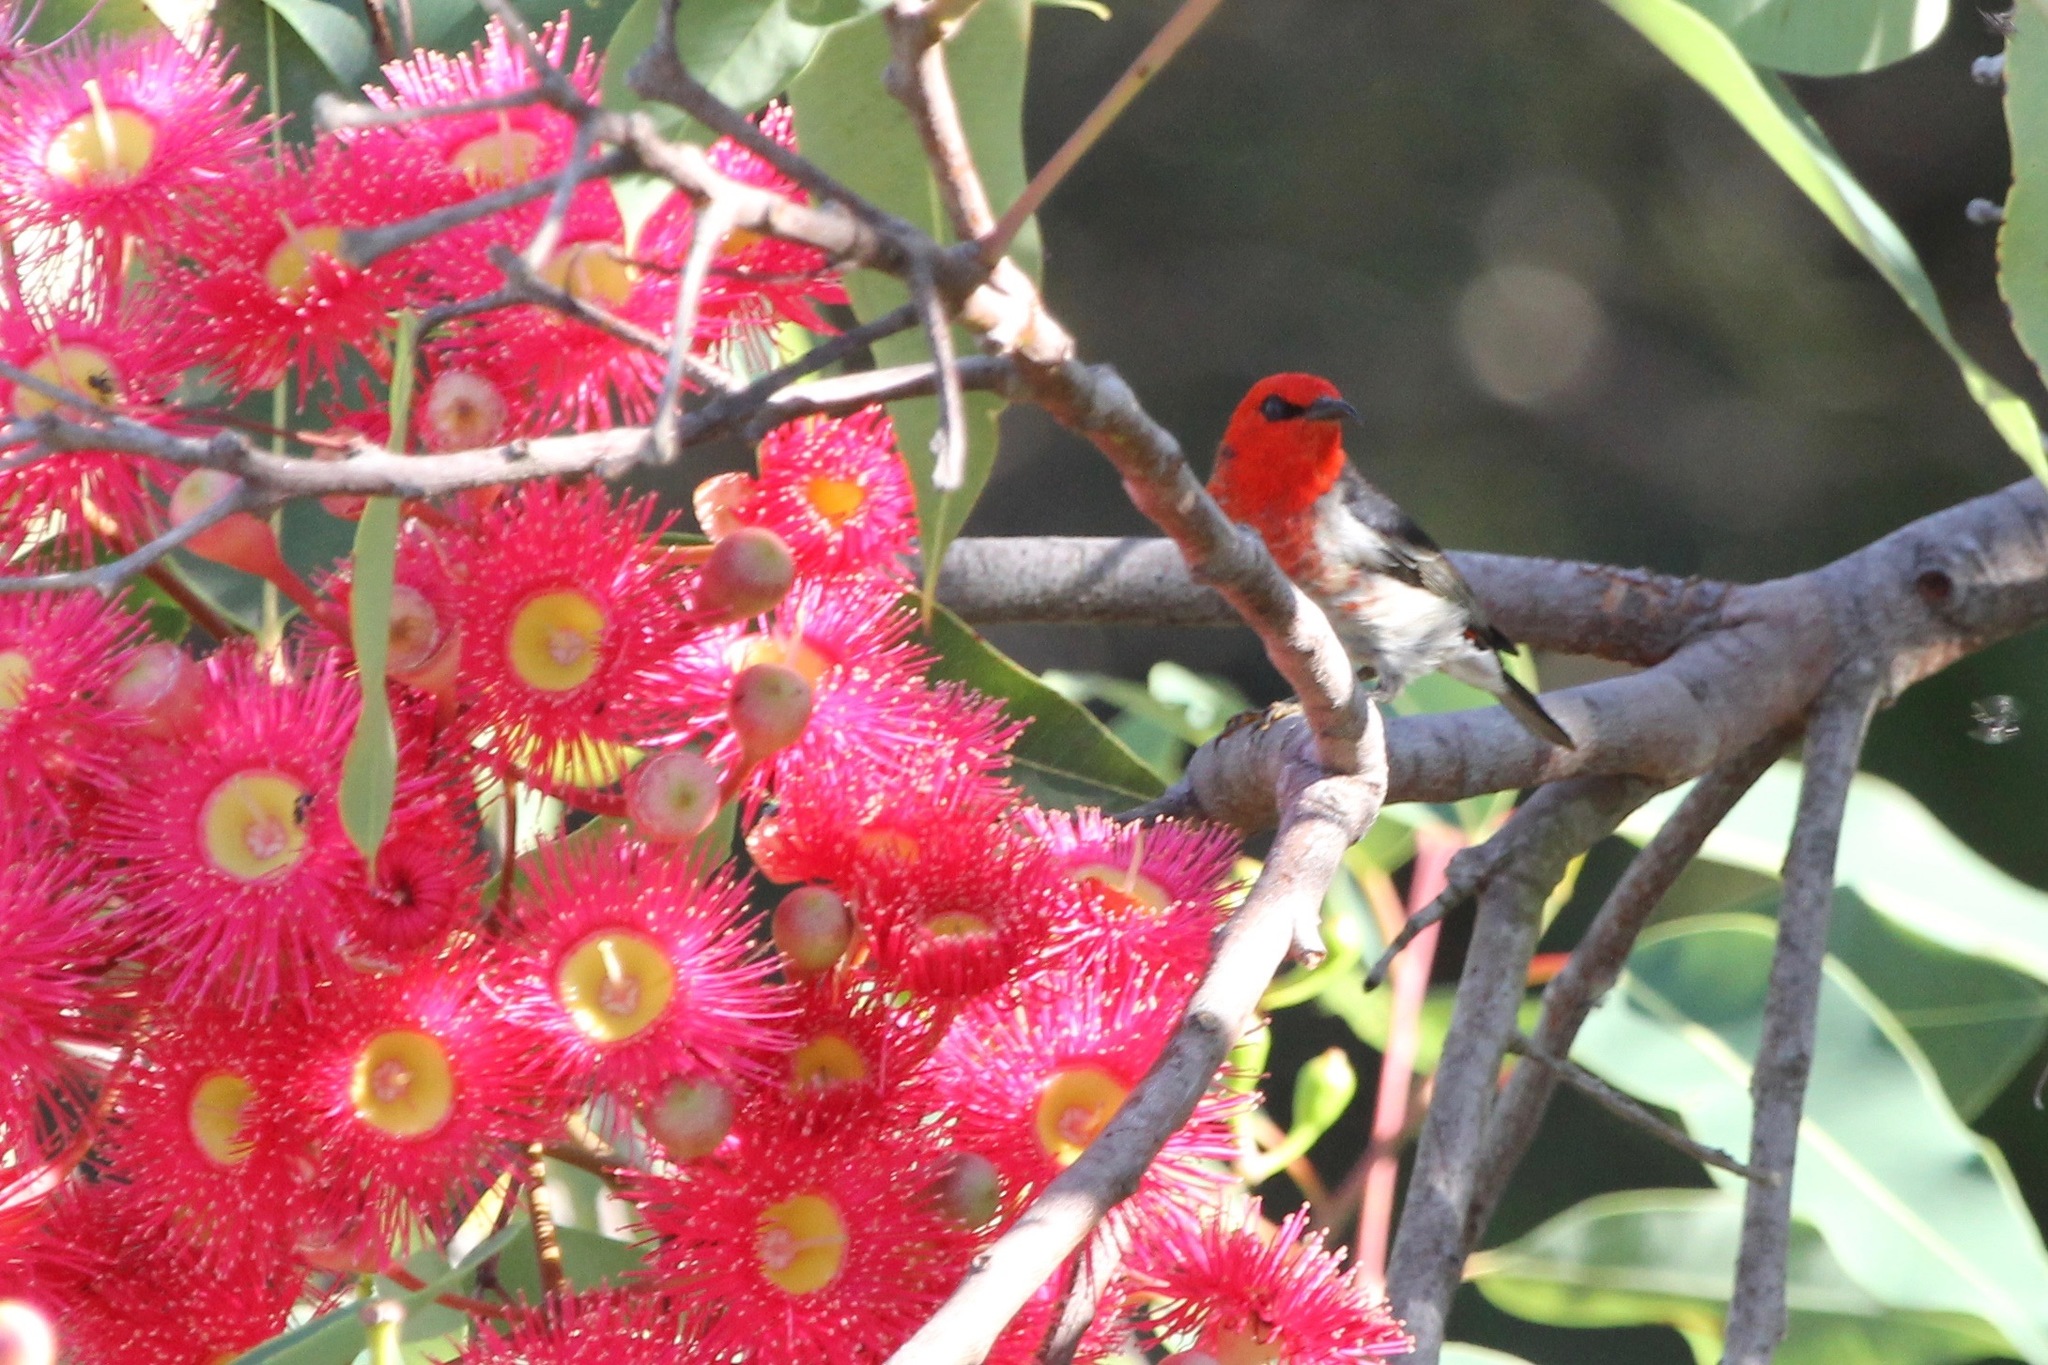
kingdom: Animalia
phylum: Chordata
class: Aves
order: Passeriformes
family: Meliphagidae
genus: Myzomela
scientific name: Myzomela sanguinolenta
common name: Scarlet myzomela
